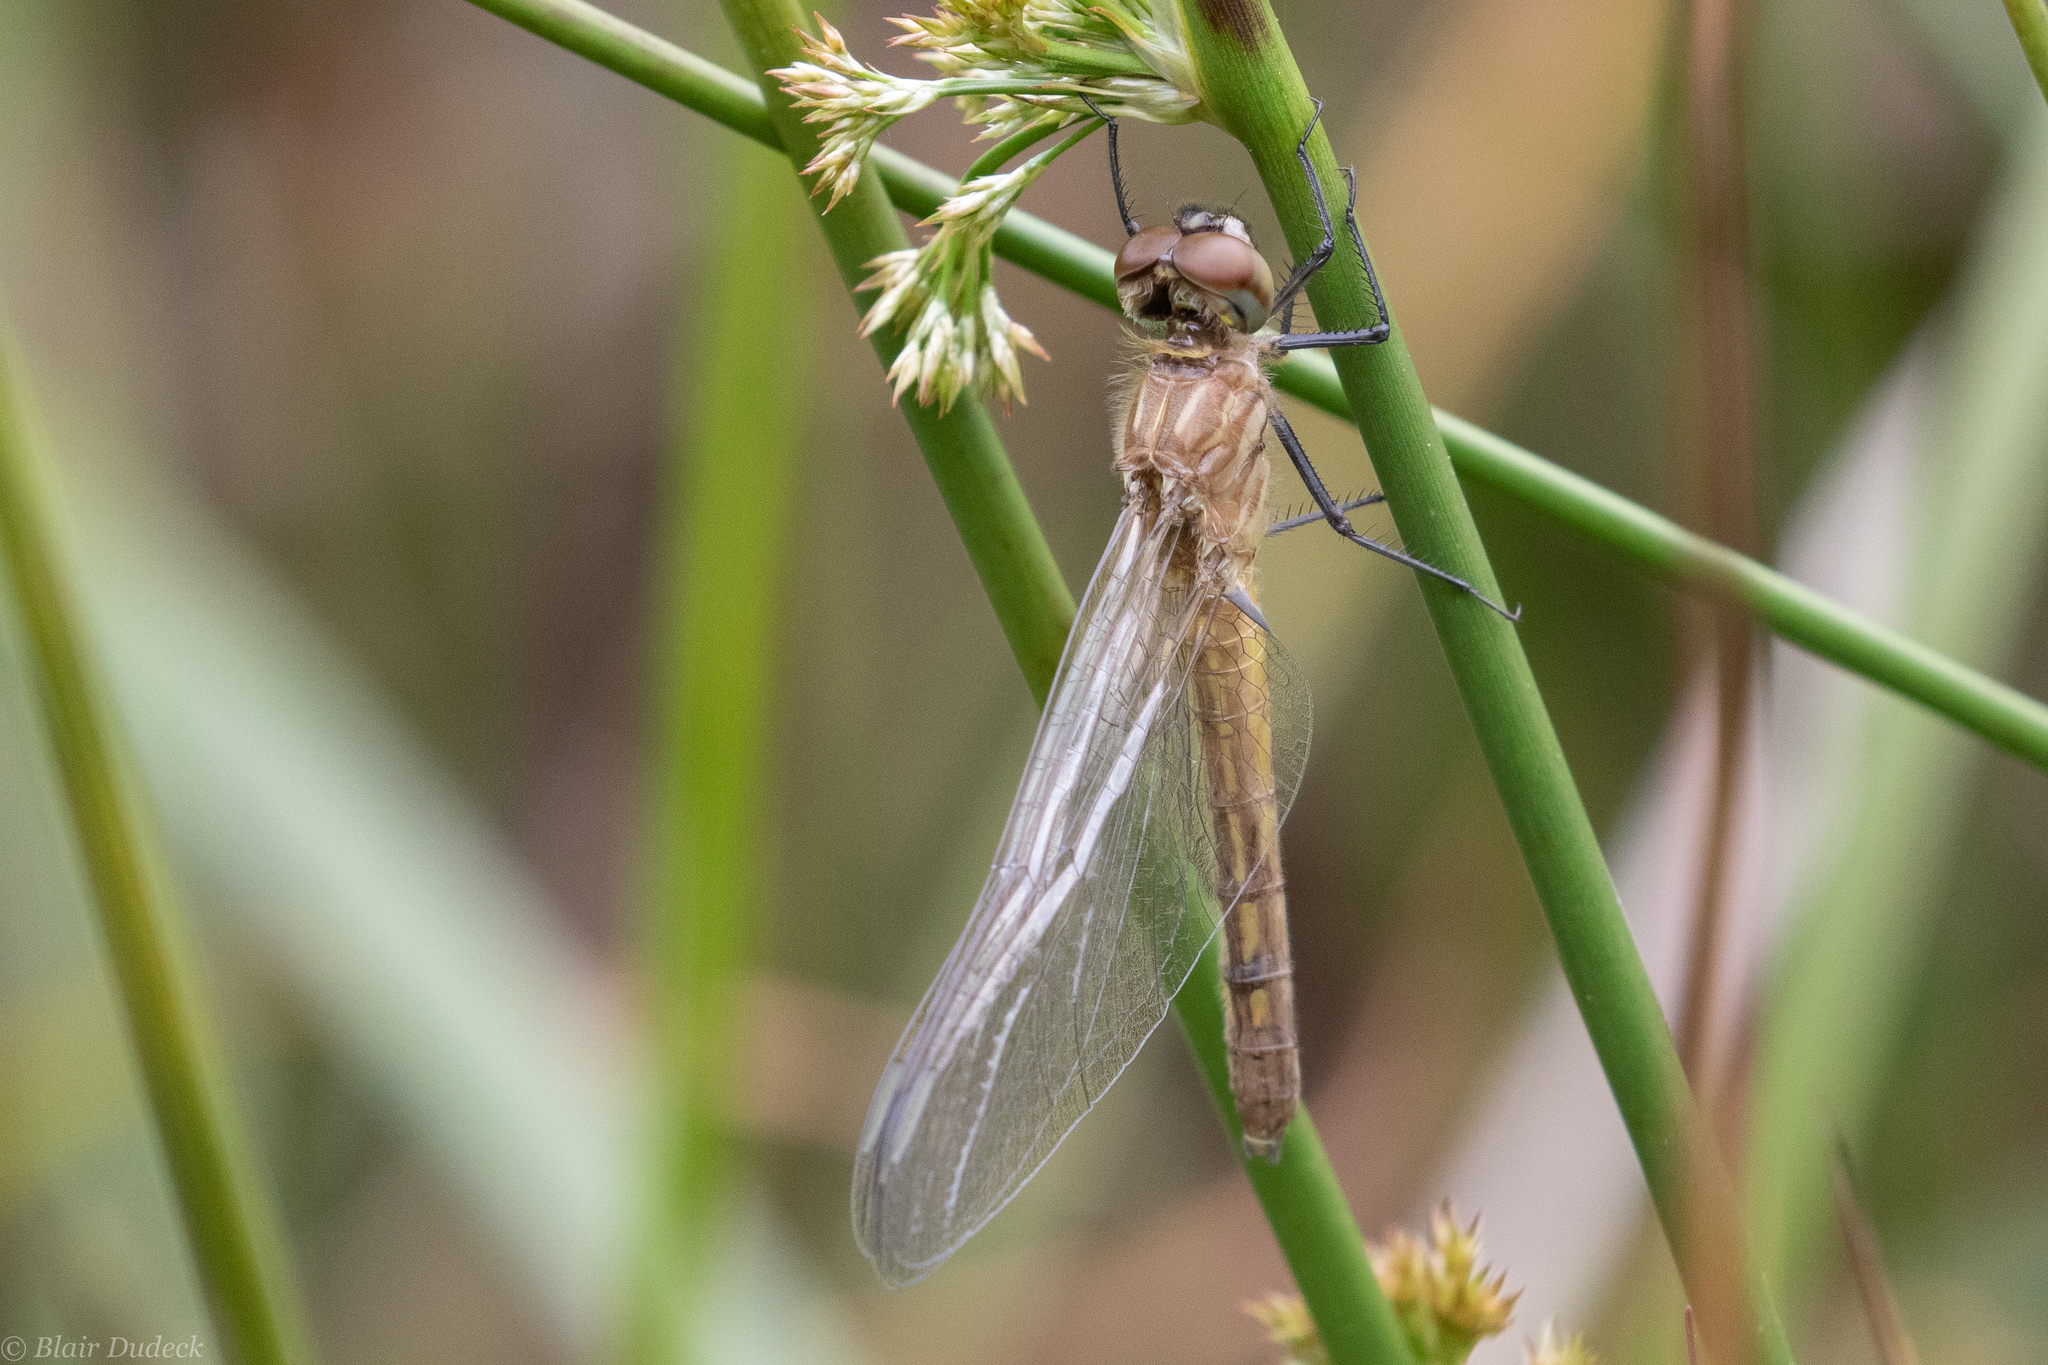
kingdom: Animalia
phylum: Arthropoda
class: Insecta
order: Odonata
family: Libellulidae
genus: Pachydiplax
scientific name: Pachydiplax longipennis
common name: Blue dasher
